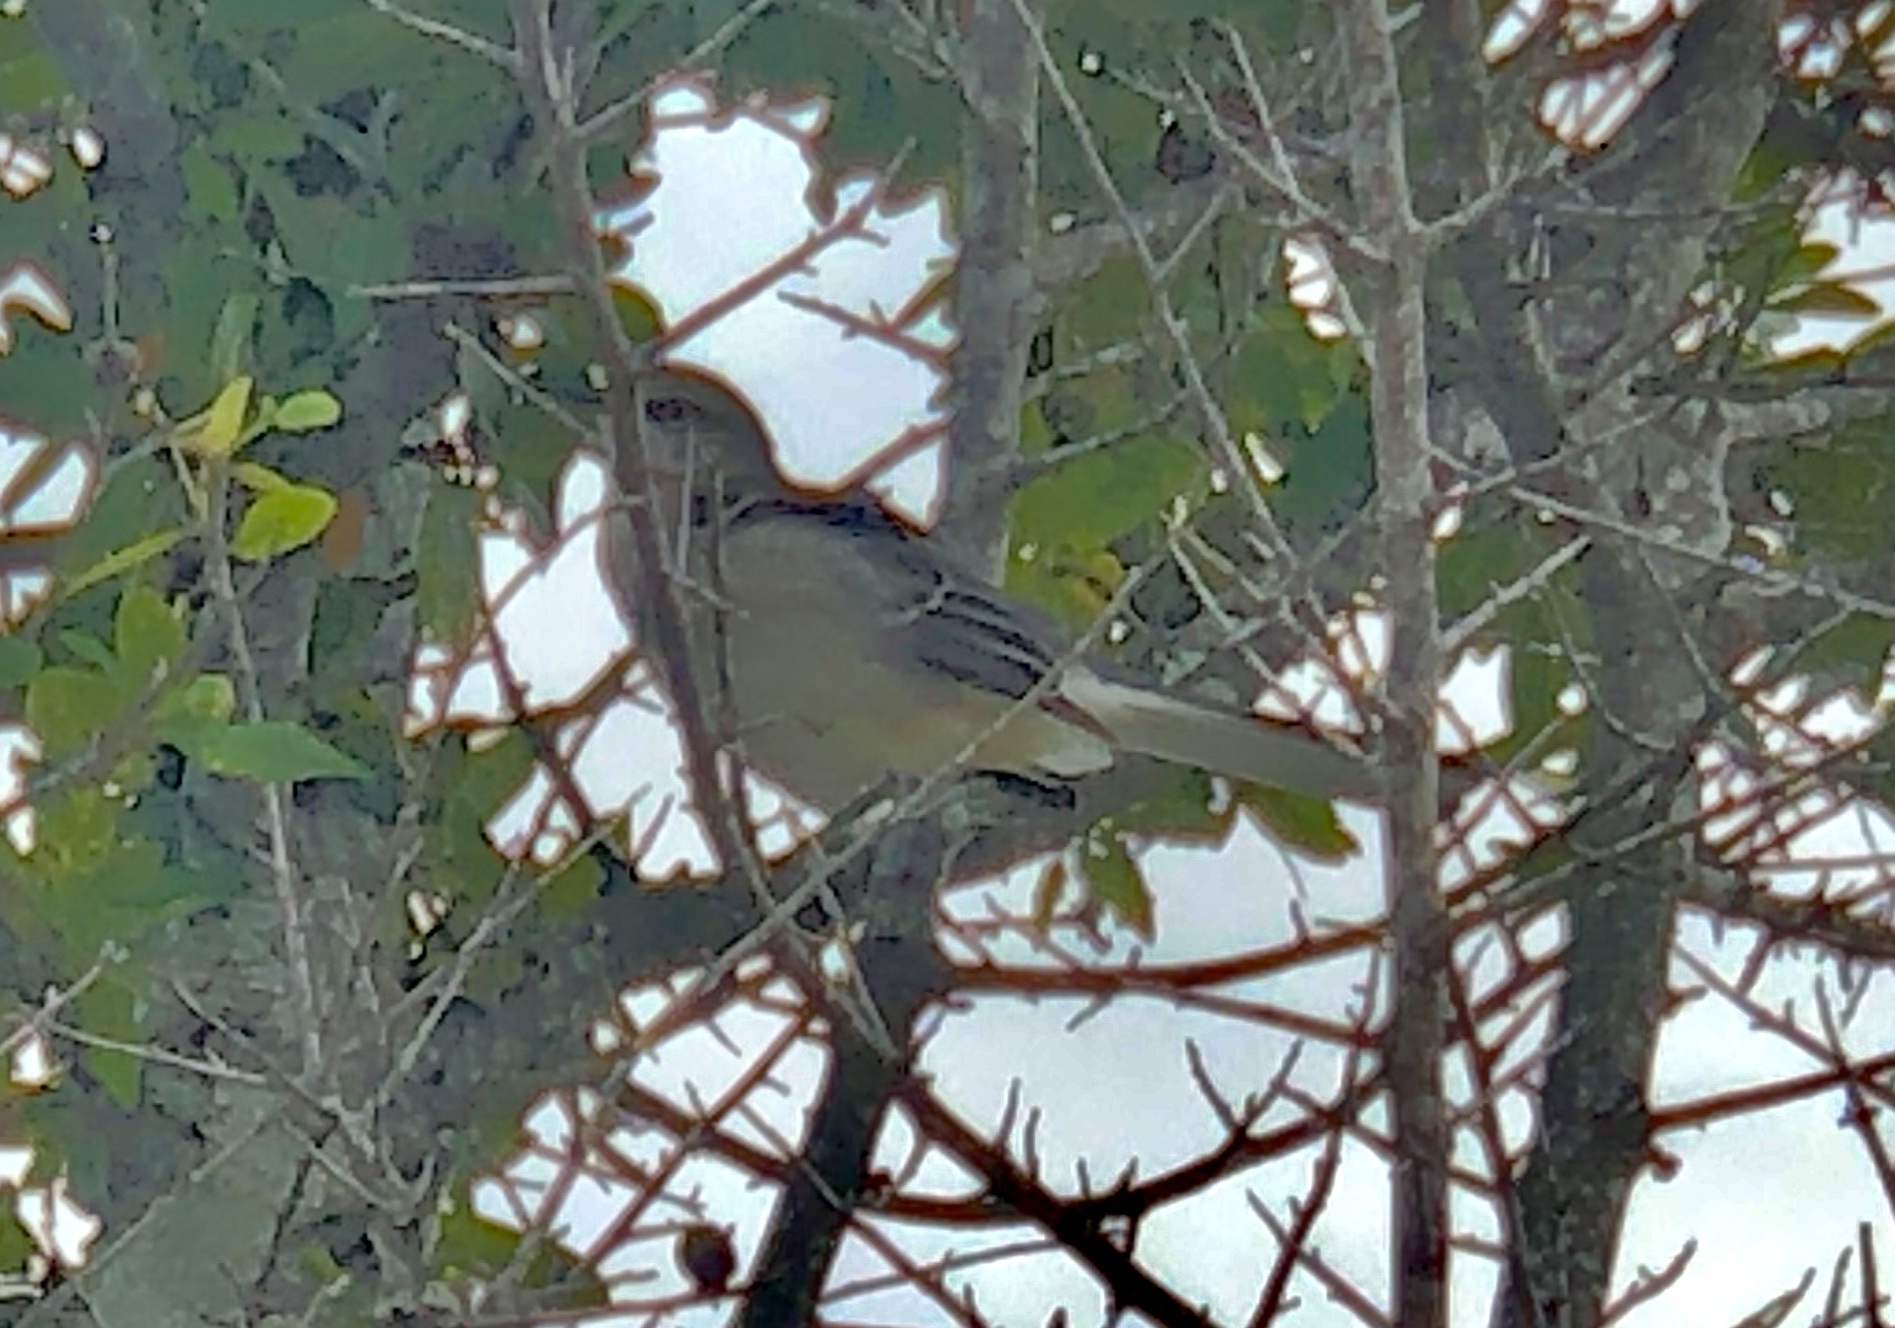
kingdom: Animalia
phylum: Chordata
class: Aves
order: Passeriformes
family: Mimidae
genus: Mimus
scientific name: Mimus polyglottos
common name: Northern mockingbird
